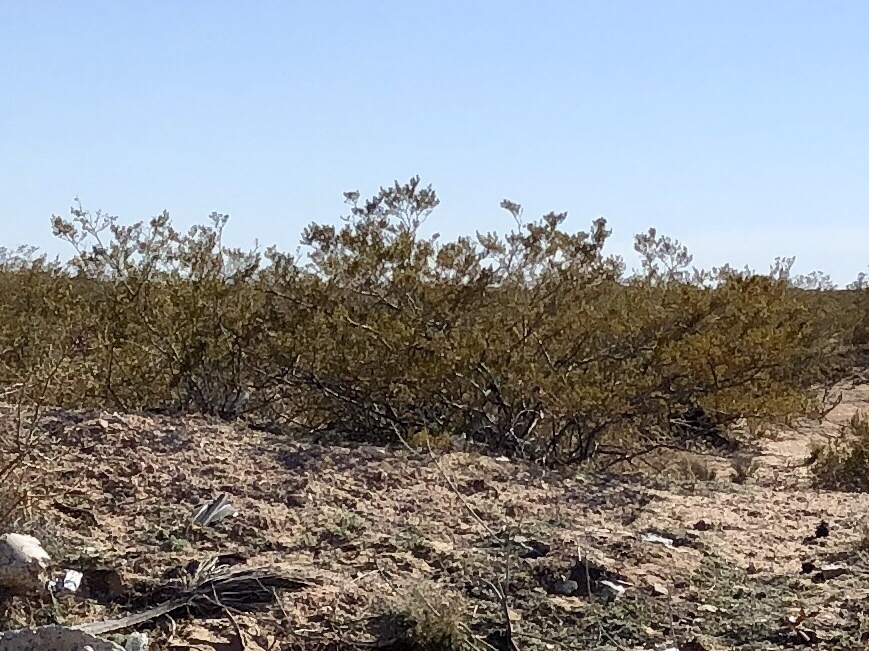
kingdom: Plantae
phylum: Tracheophyta
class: Magnoliopsida
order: Zygophyllales
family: Zygophyllaceae
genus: Larrea
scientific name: Larrea tridentata
